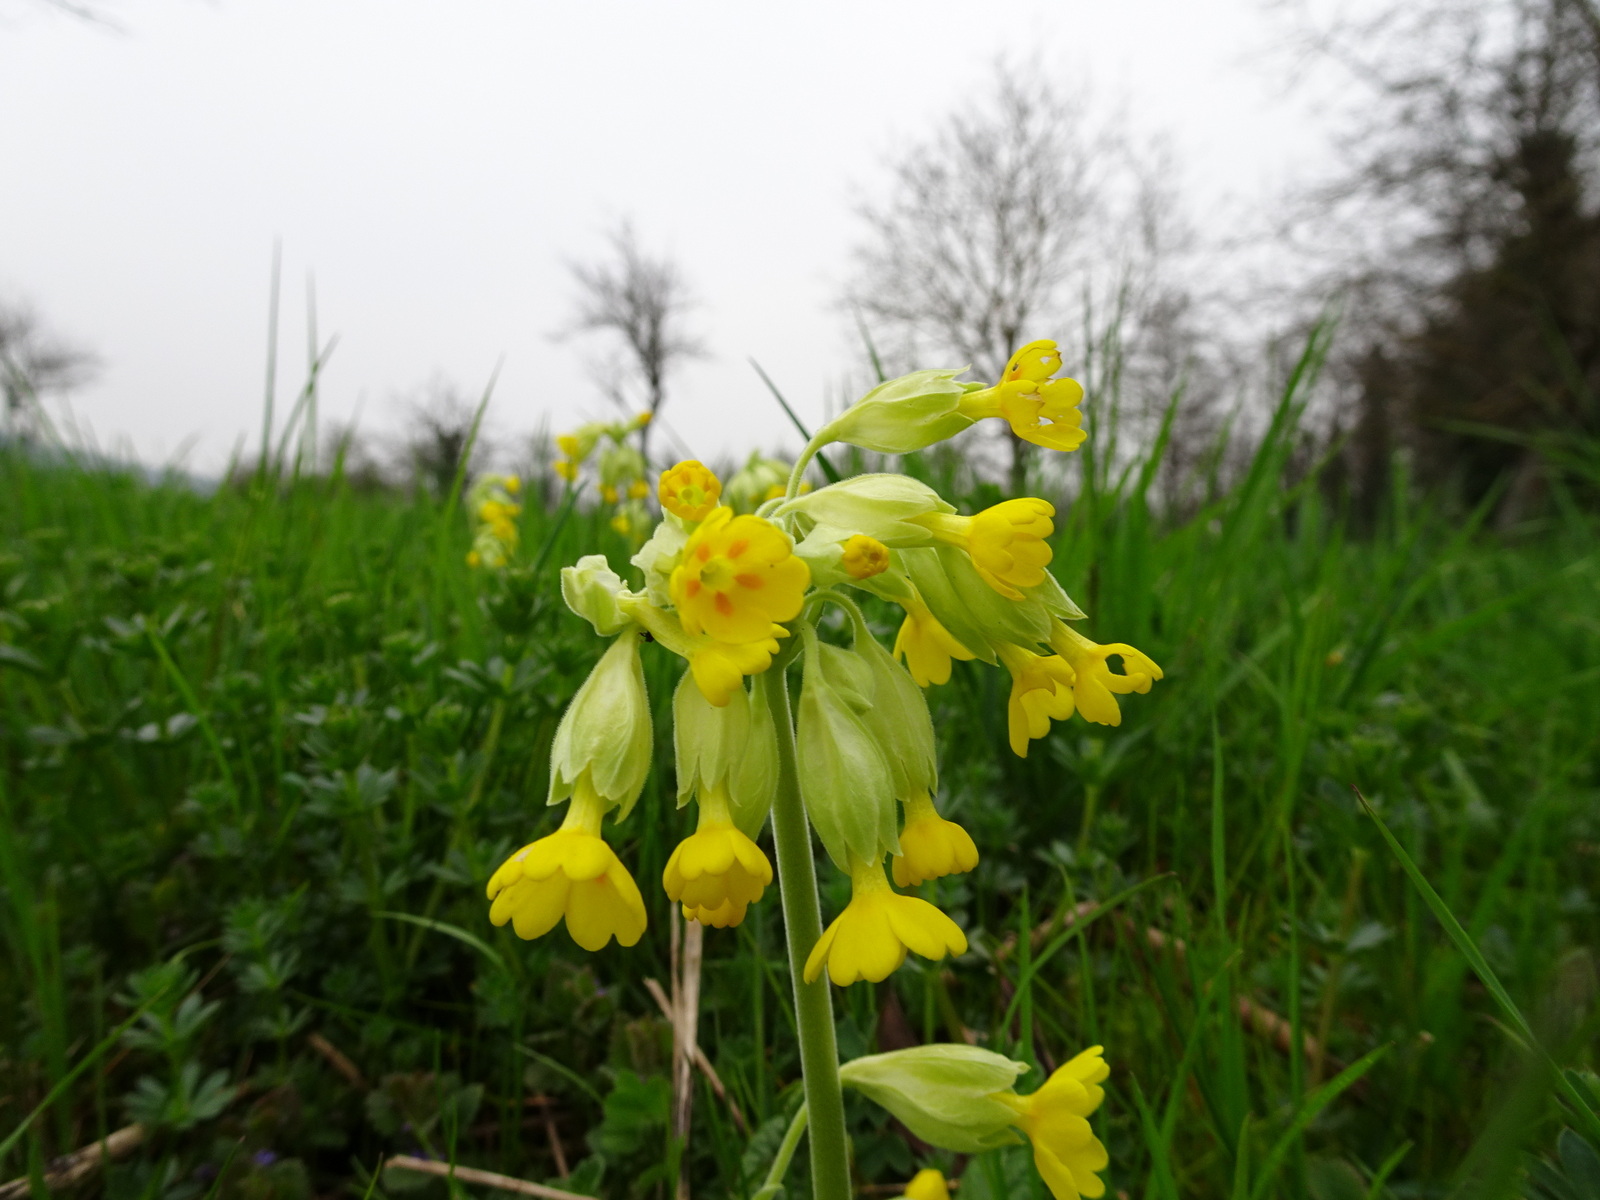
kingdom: Plantae
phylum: Tracheophyta
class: Magnoliopsida
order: Ericales
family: Primulaceae
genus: Primula
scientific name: Primula veris
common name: Cowslip
